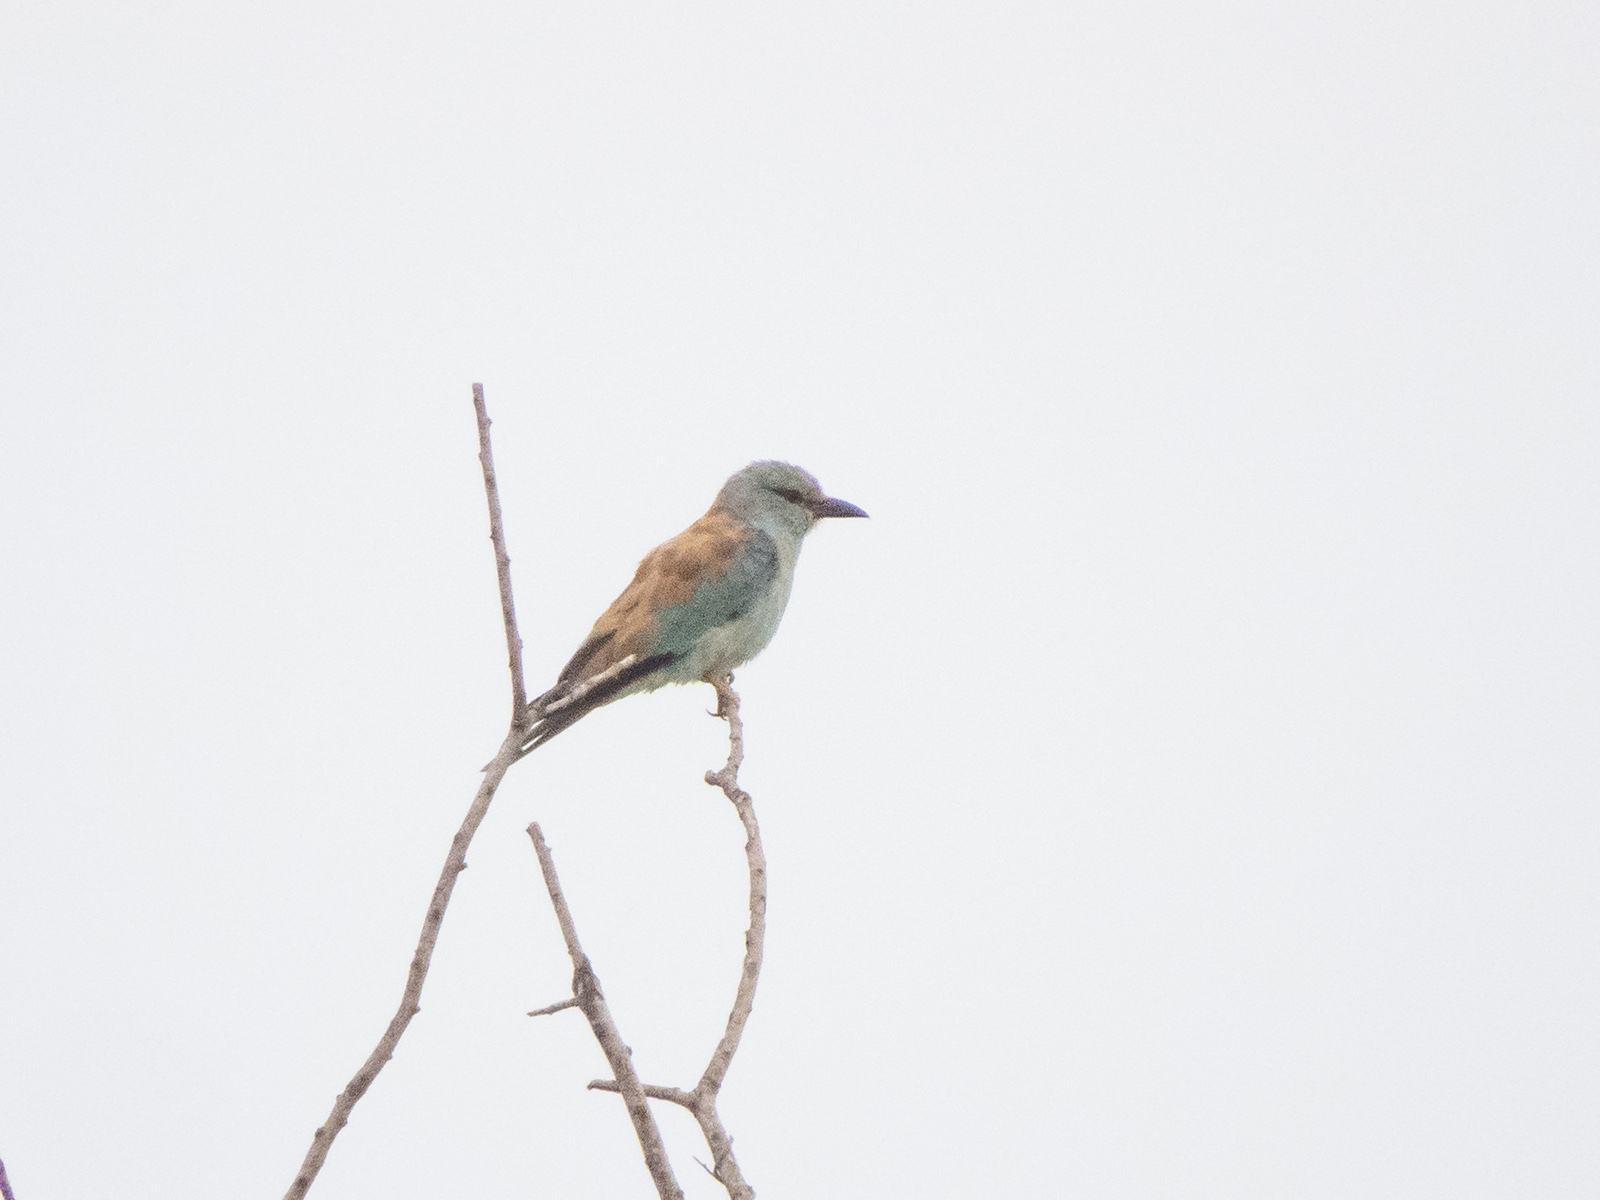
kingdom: Animalia
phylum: Chordata
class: Aves
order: Coraciiformes
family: Coraciidae
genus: Coracias
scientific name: Coracias garrulus
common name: European roller
